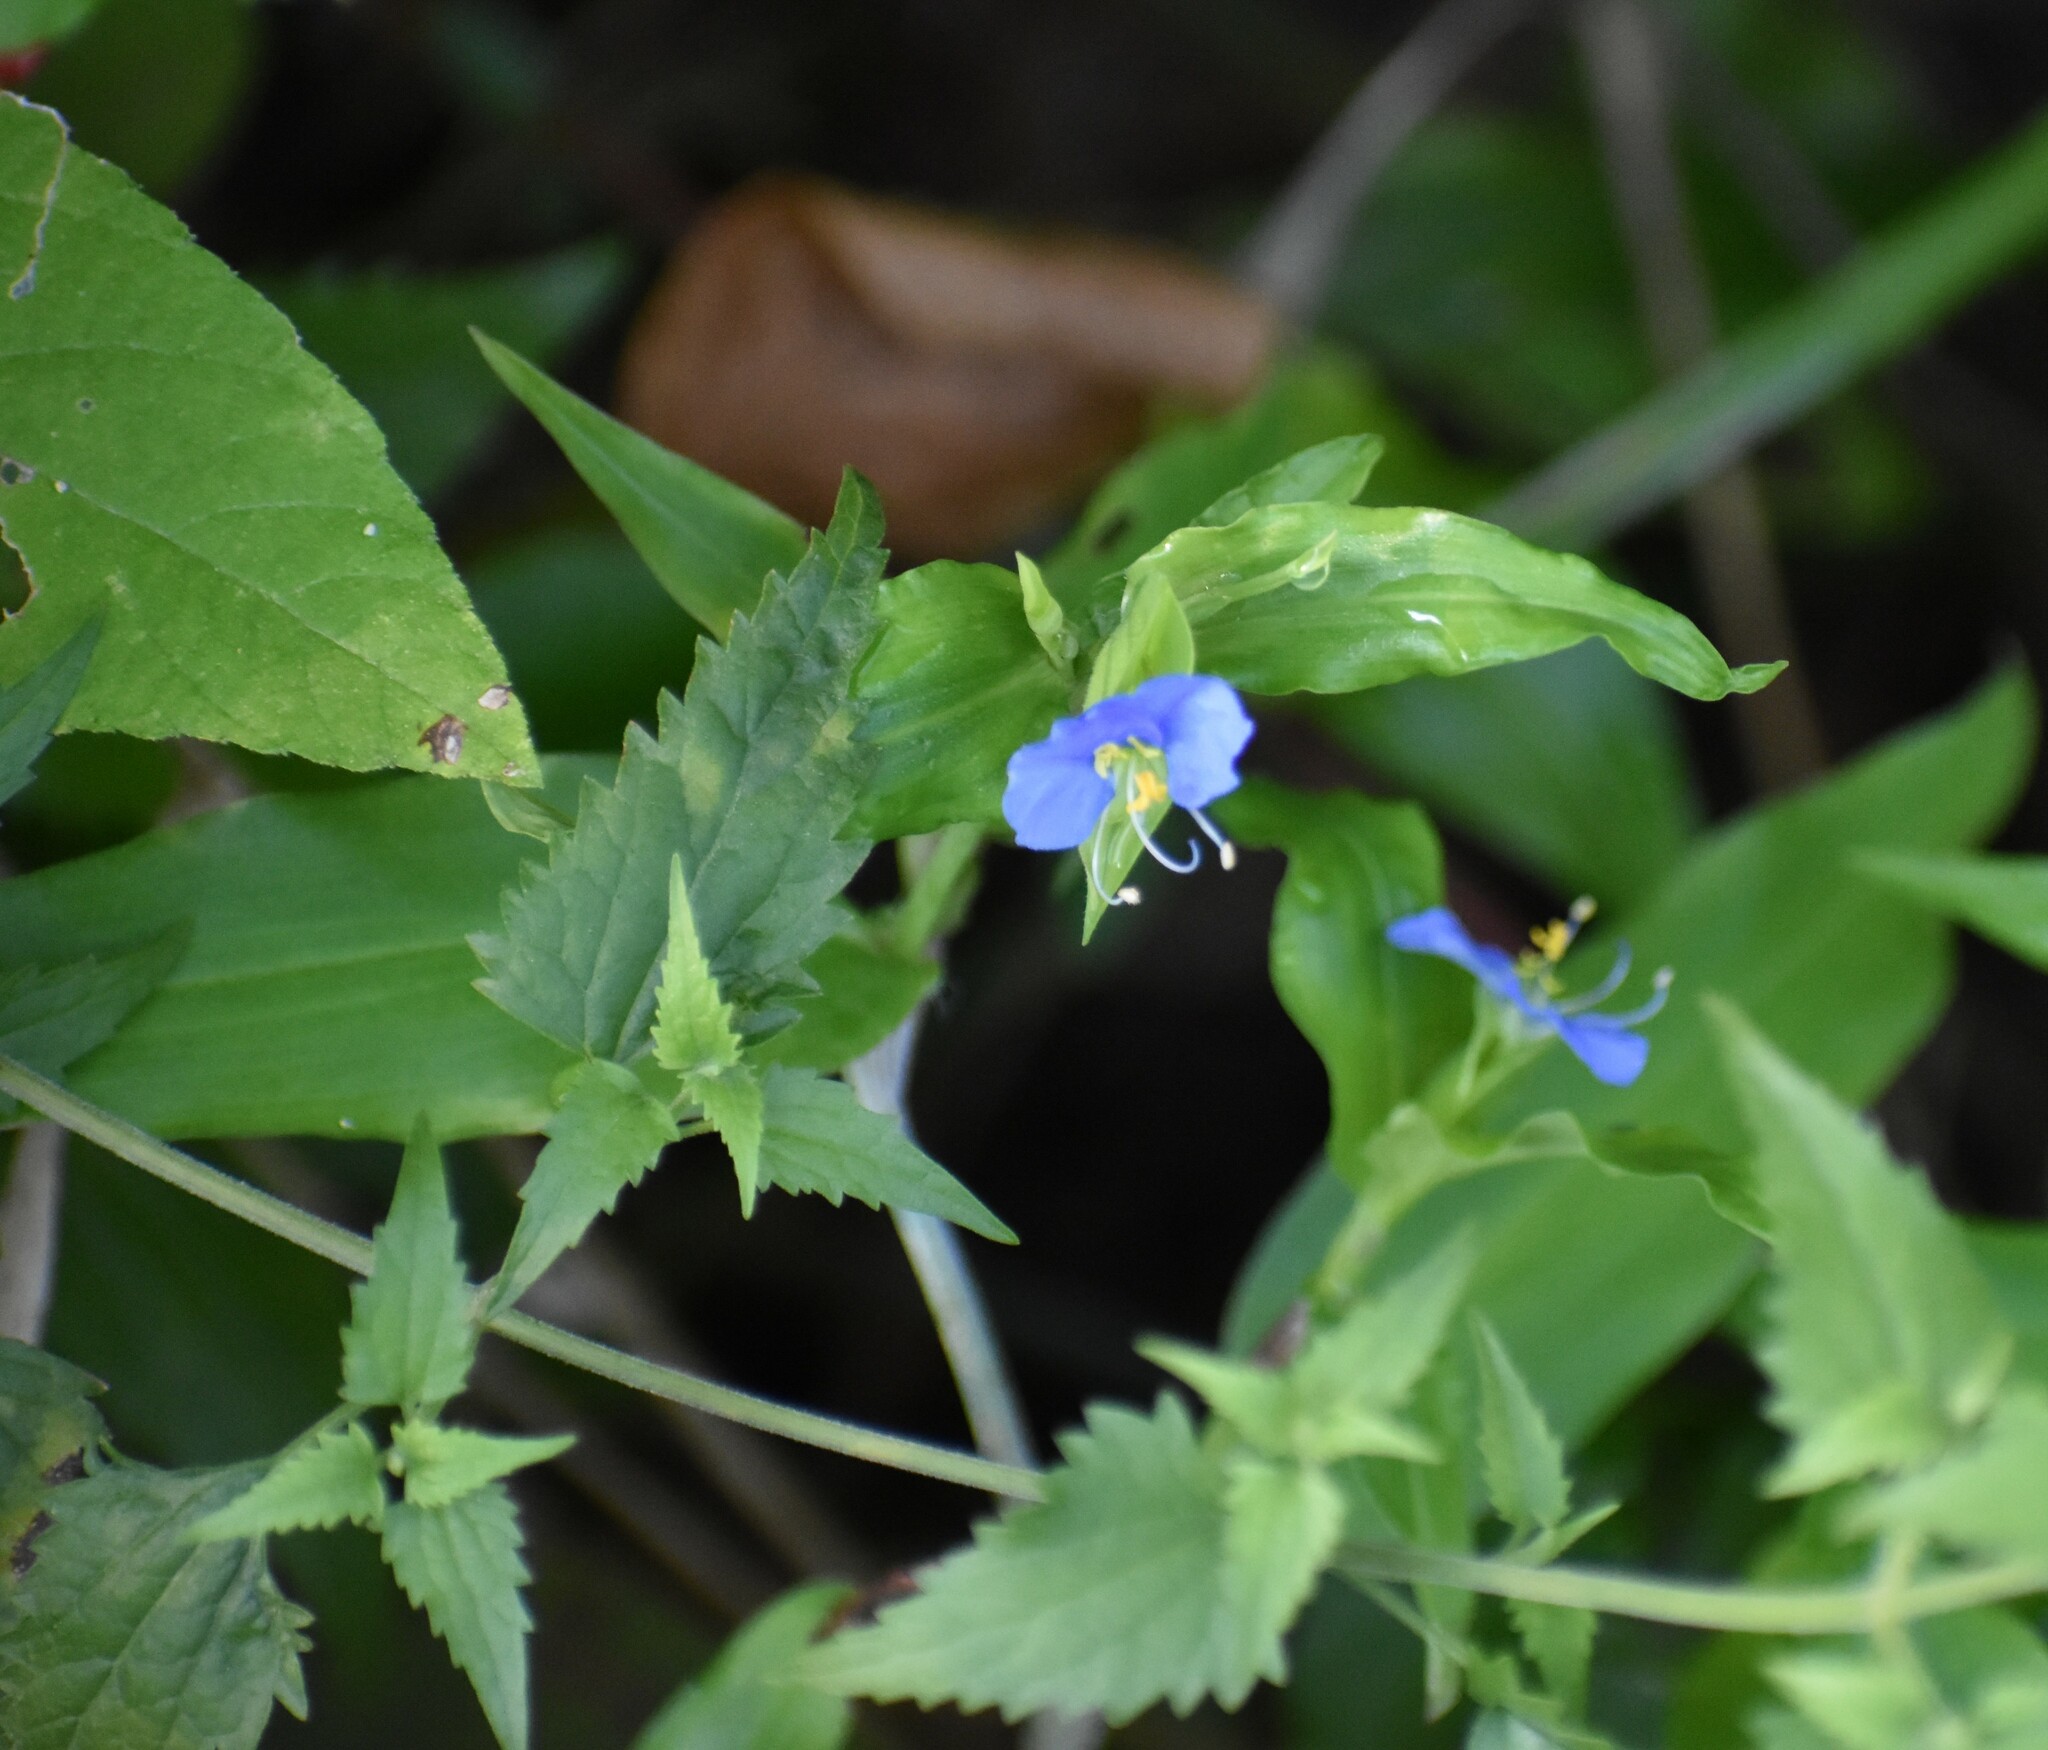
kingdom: Plantae
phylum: Tracheophyta
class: Liliopsida
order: Commelinales
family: Commelinaceae
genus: Commelina
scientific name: Commelina erecta
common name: Blousel blommetjie
